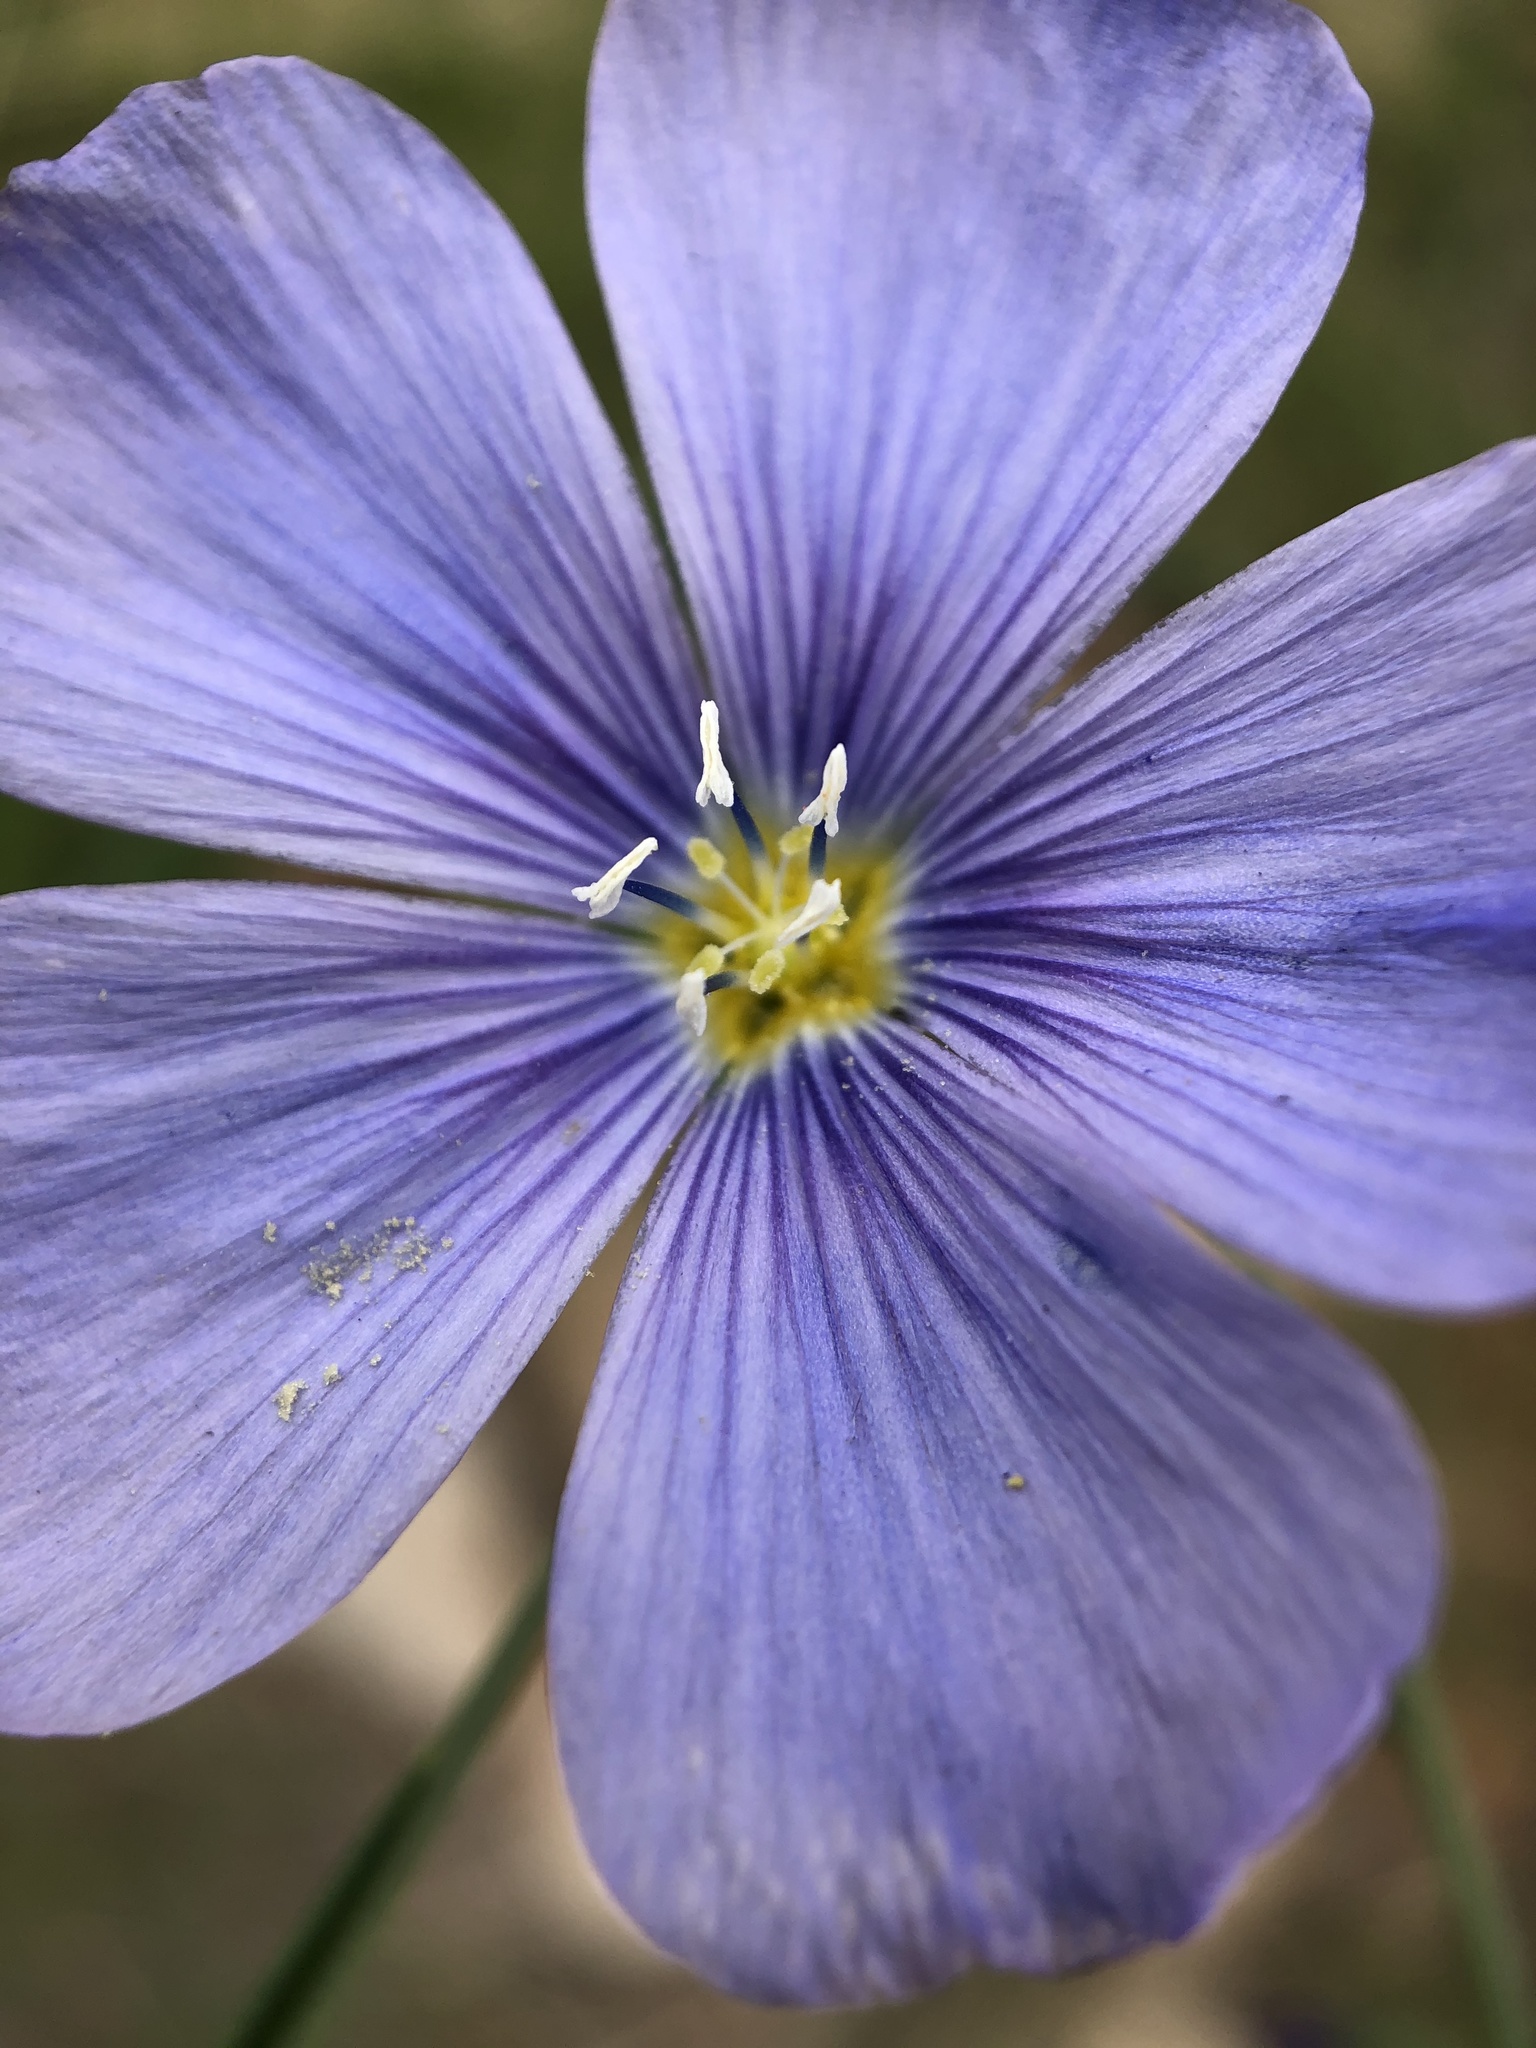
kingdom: Plantae
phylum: Tracheophyta
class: Magnoliopsida
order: Malpighiales
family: Linaceae
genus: Linum
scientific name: Linum lewisii
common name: Prairie flax
